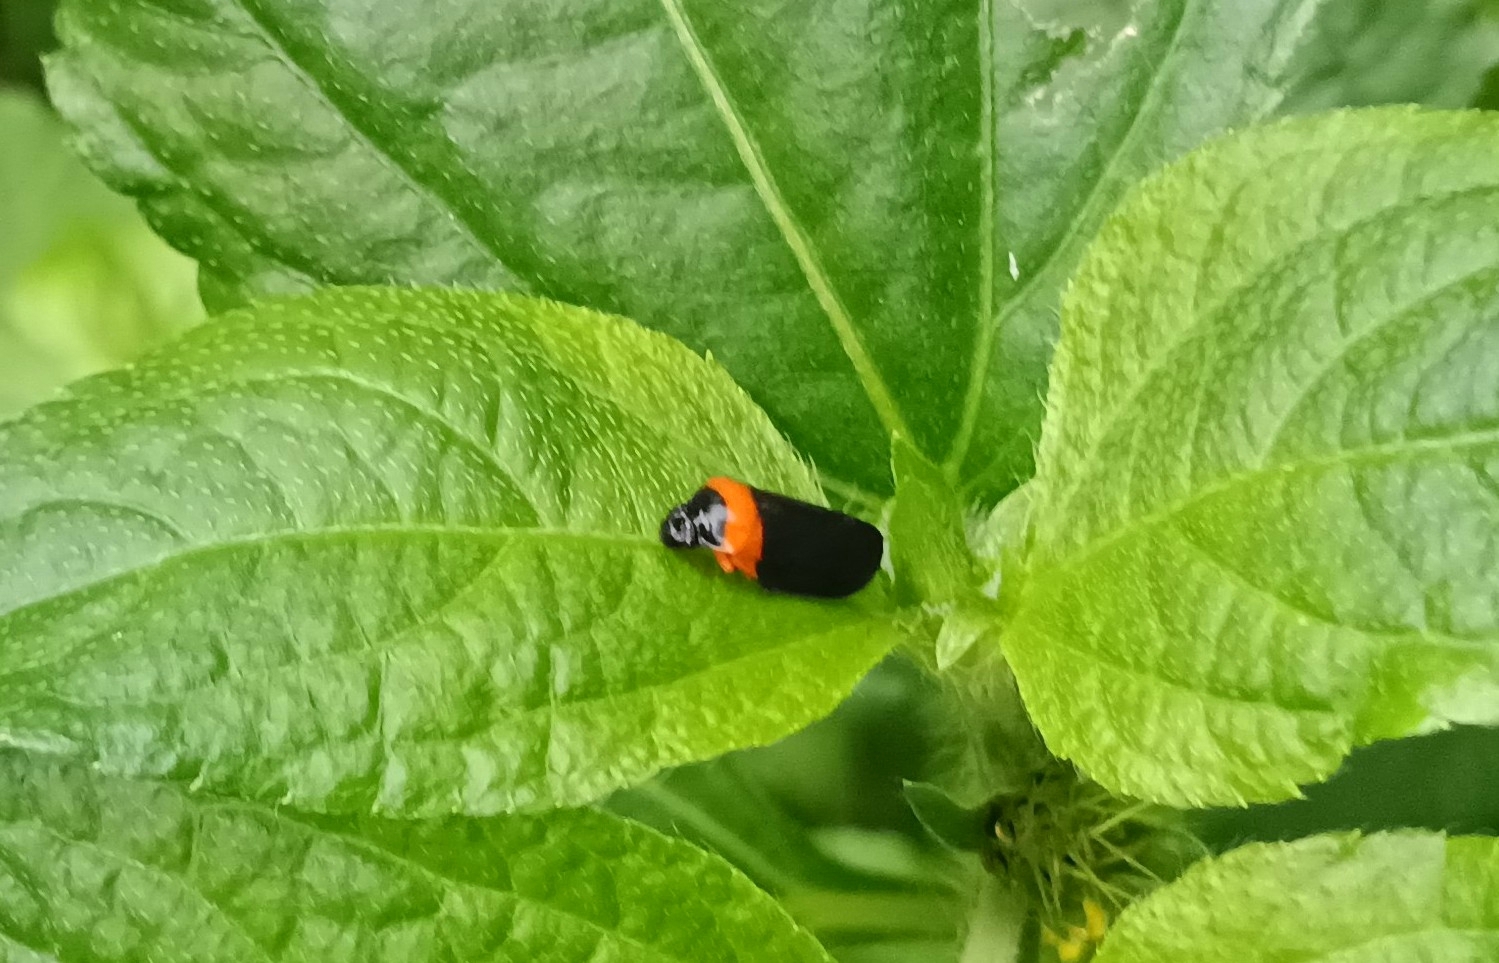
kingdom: Animalia
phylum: Arthropoda
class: Insecta
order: Hemiptera
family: Cercopidae
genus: Phymatostetha
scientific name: Phymatostetha deschampsi
